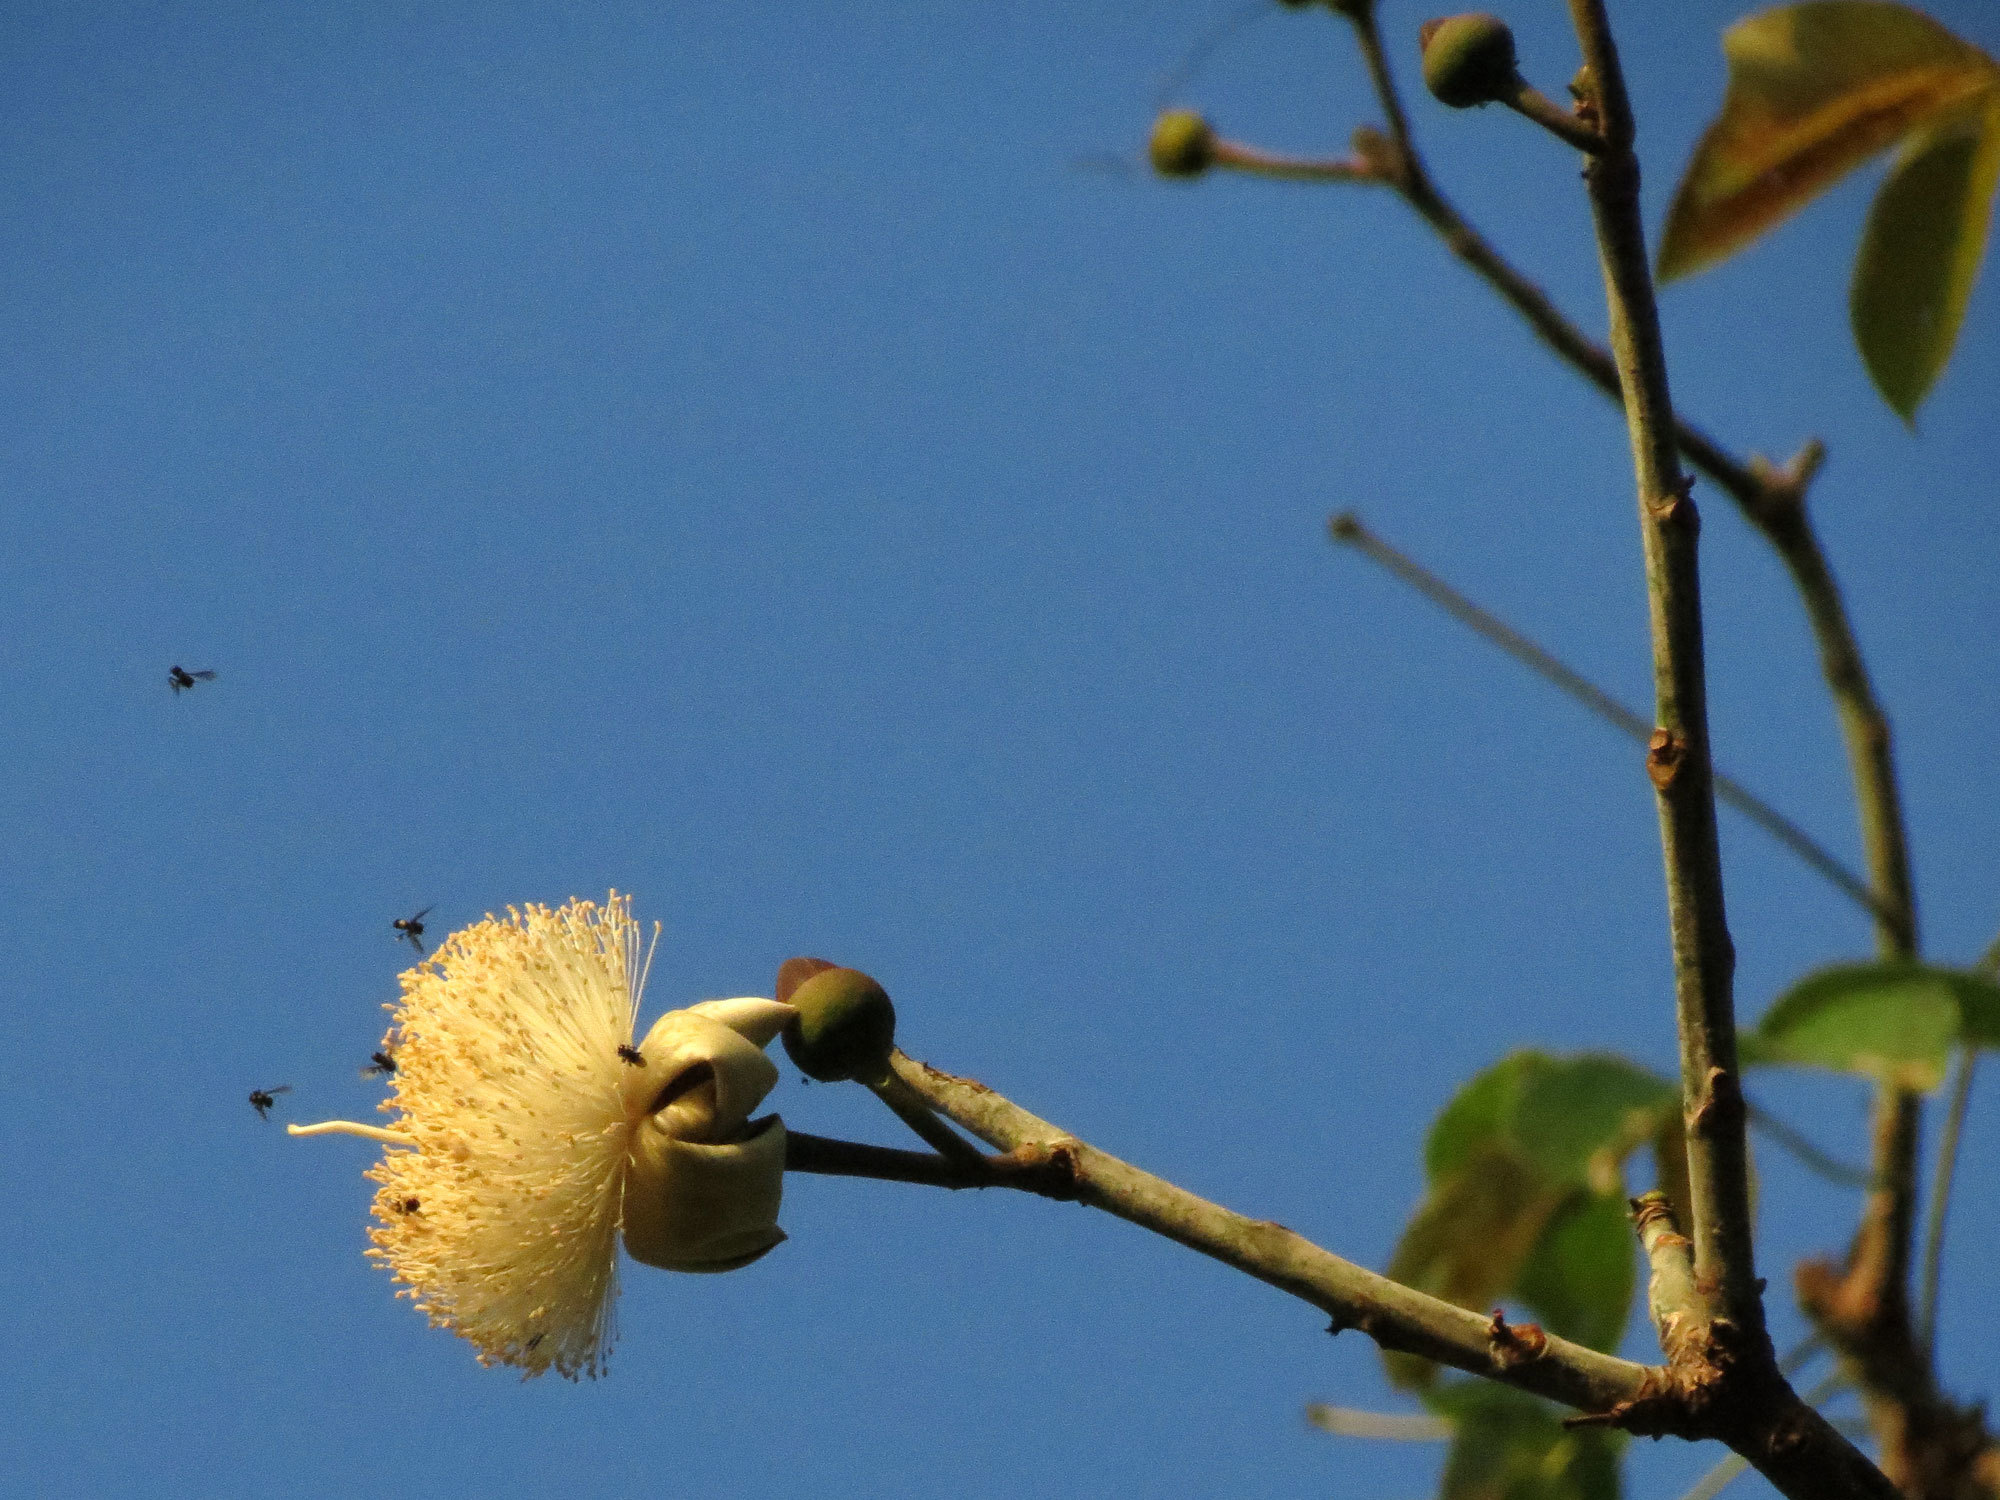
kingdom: Plantae
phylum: Tracheophyta
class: Magnoliopsida
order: Malvales
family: Malvaceae
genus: Pseudobombax
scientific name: Pseudobombax septenatum
